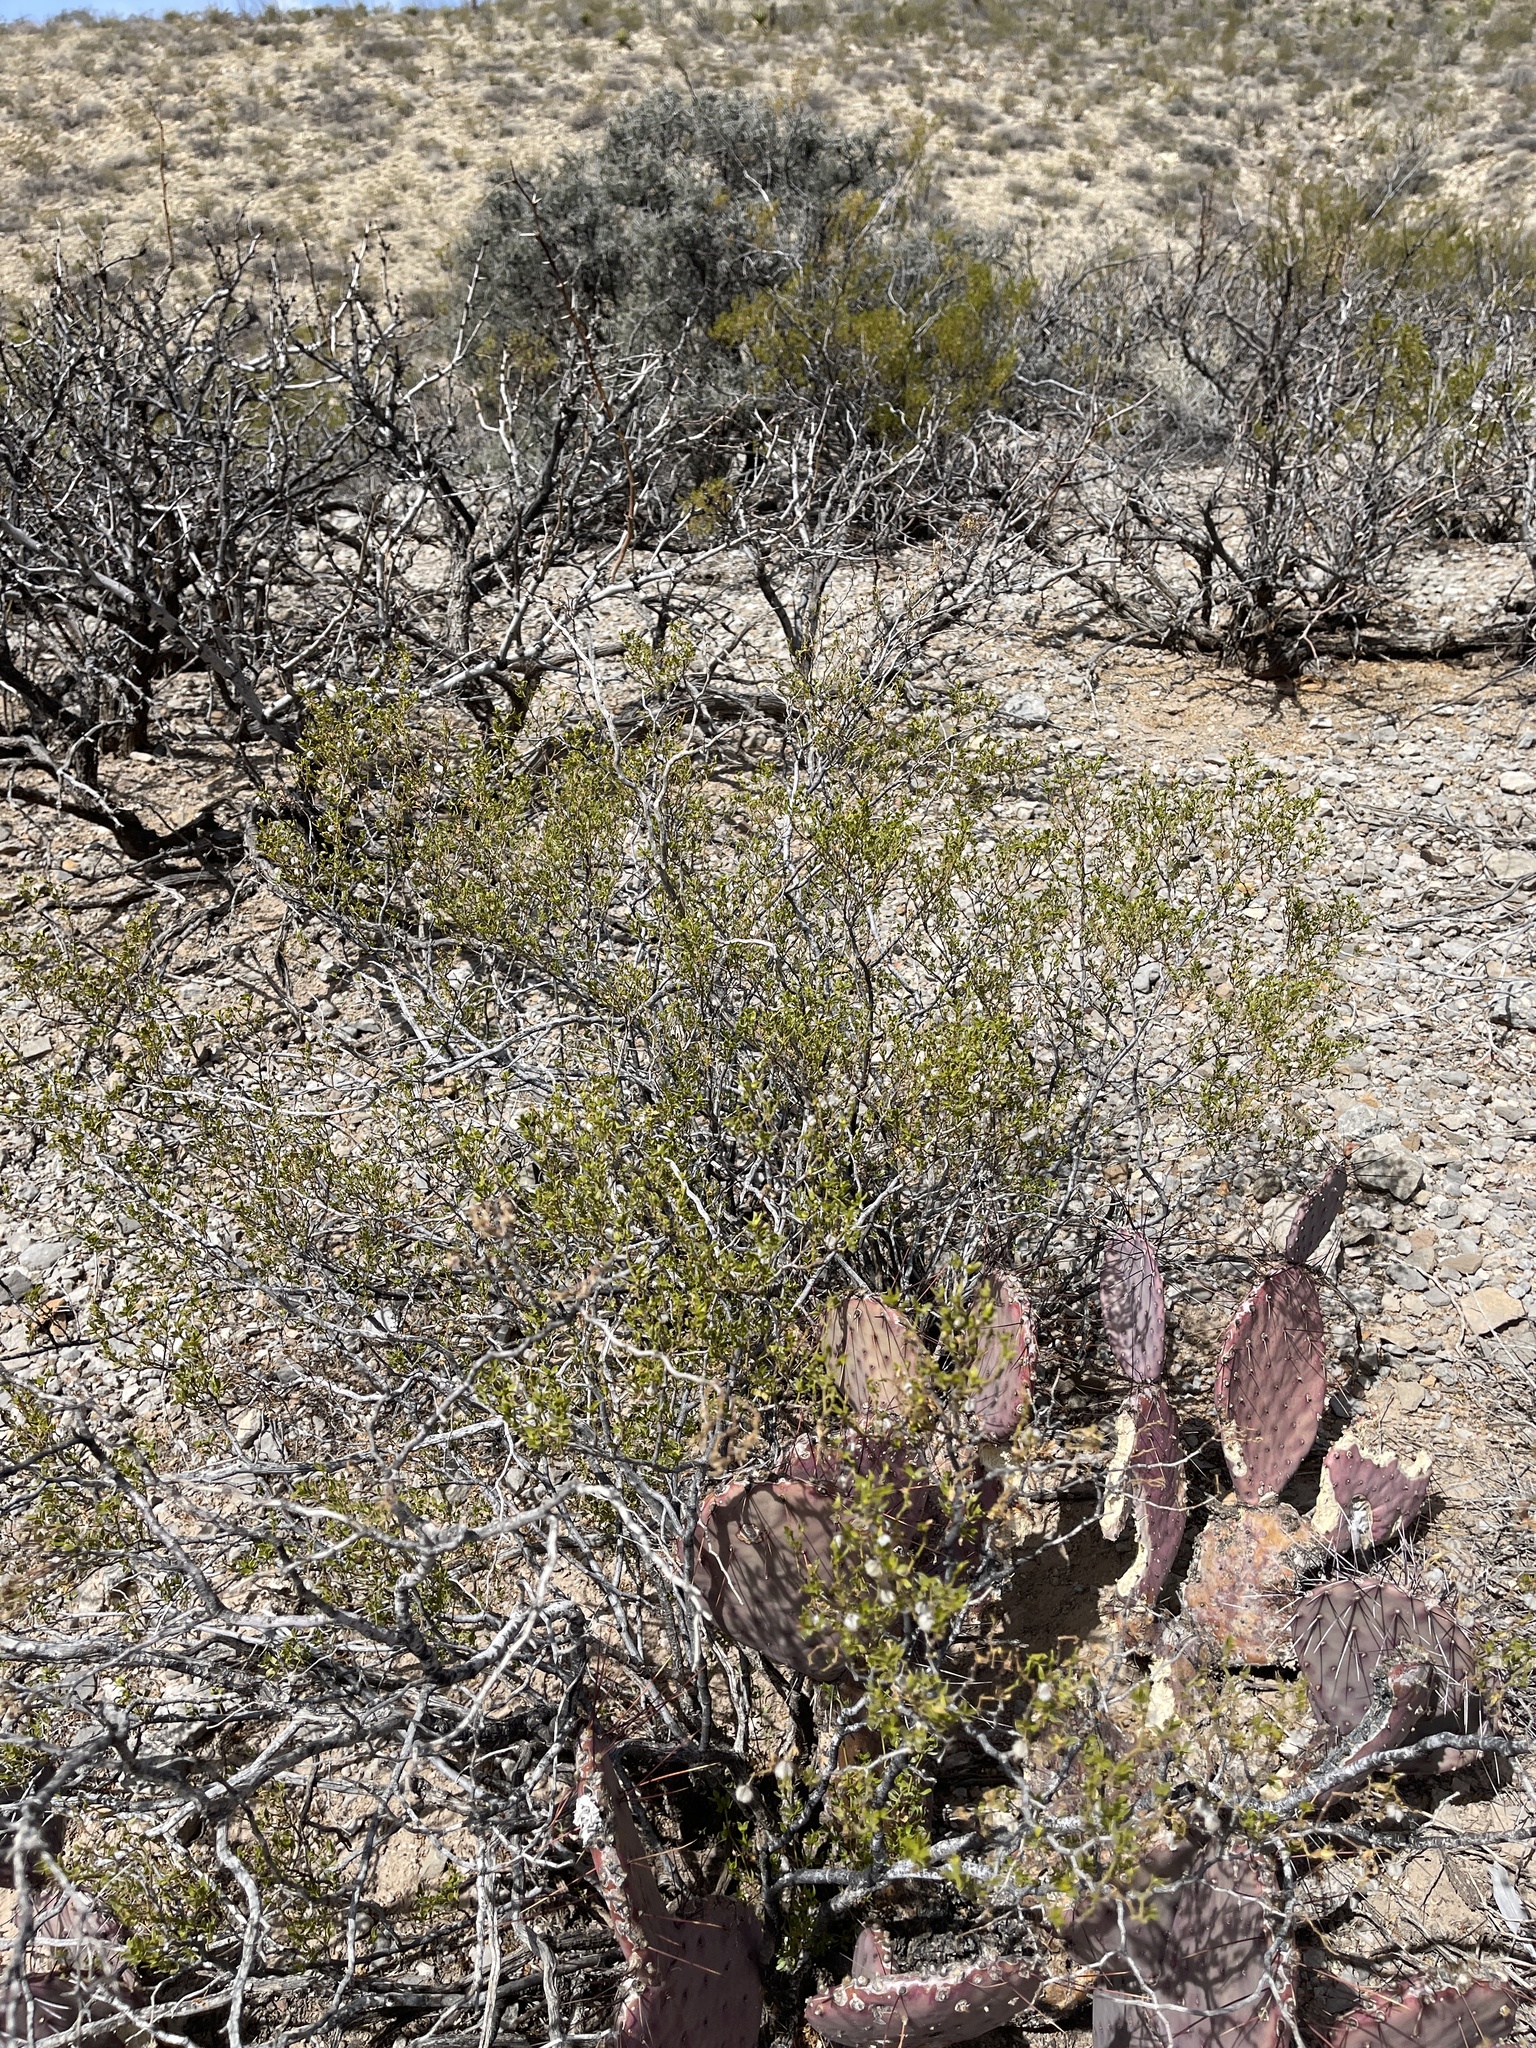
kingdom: Plantae
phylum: Tracheophyta
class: Magnoliopsida
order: Zygophyllales
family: Zygophyllaceae
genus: Larrea
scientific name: Larrea tridentata
